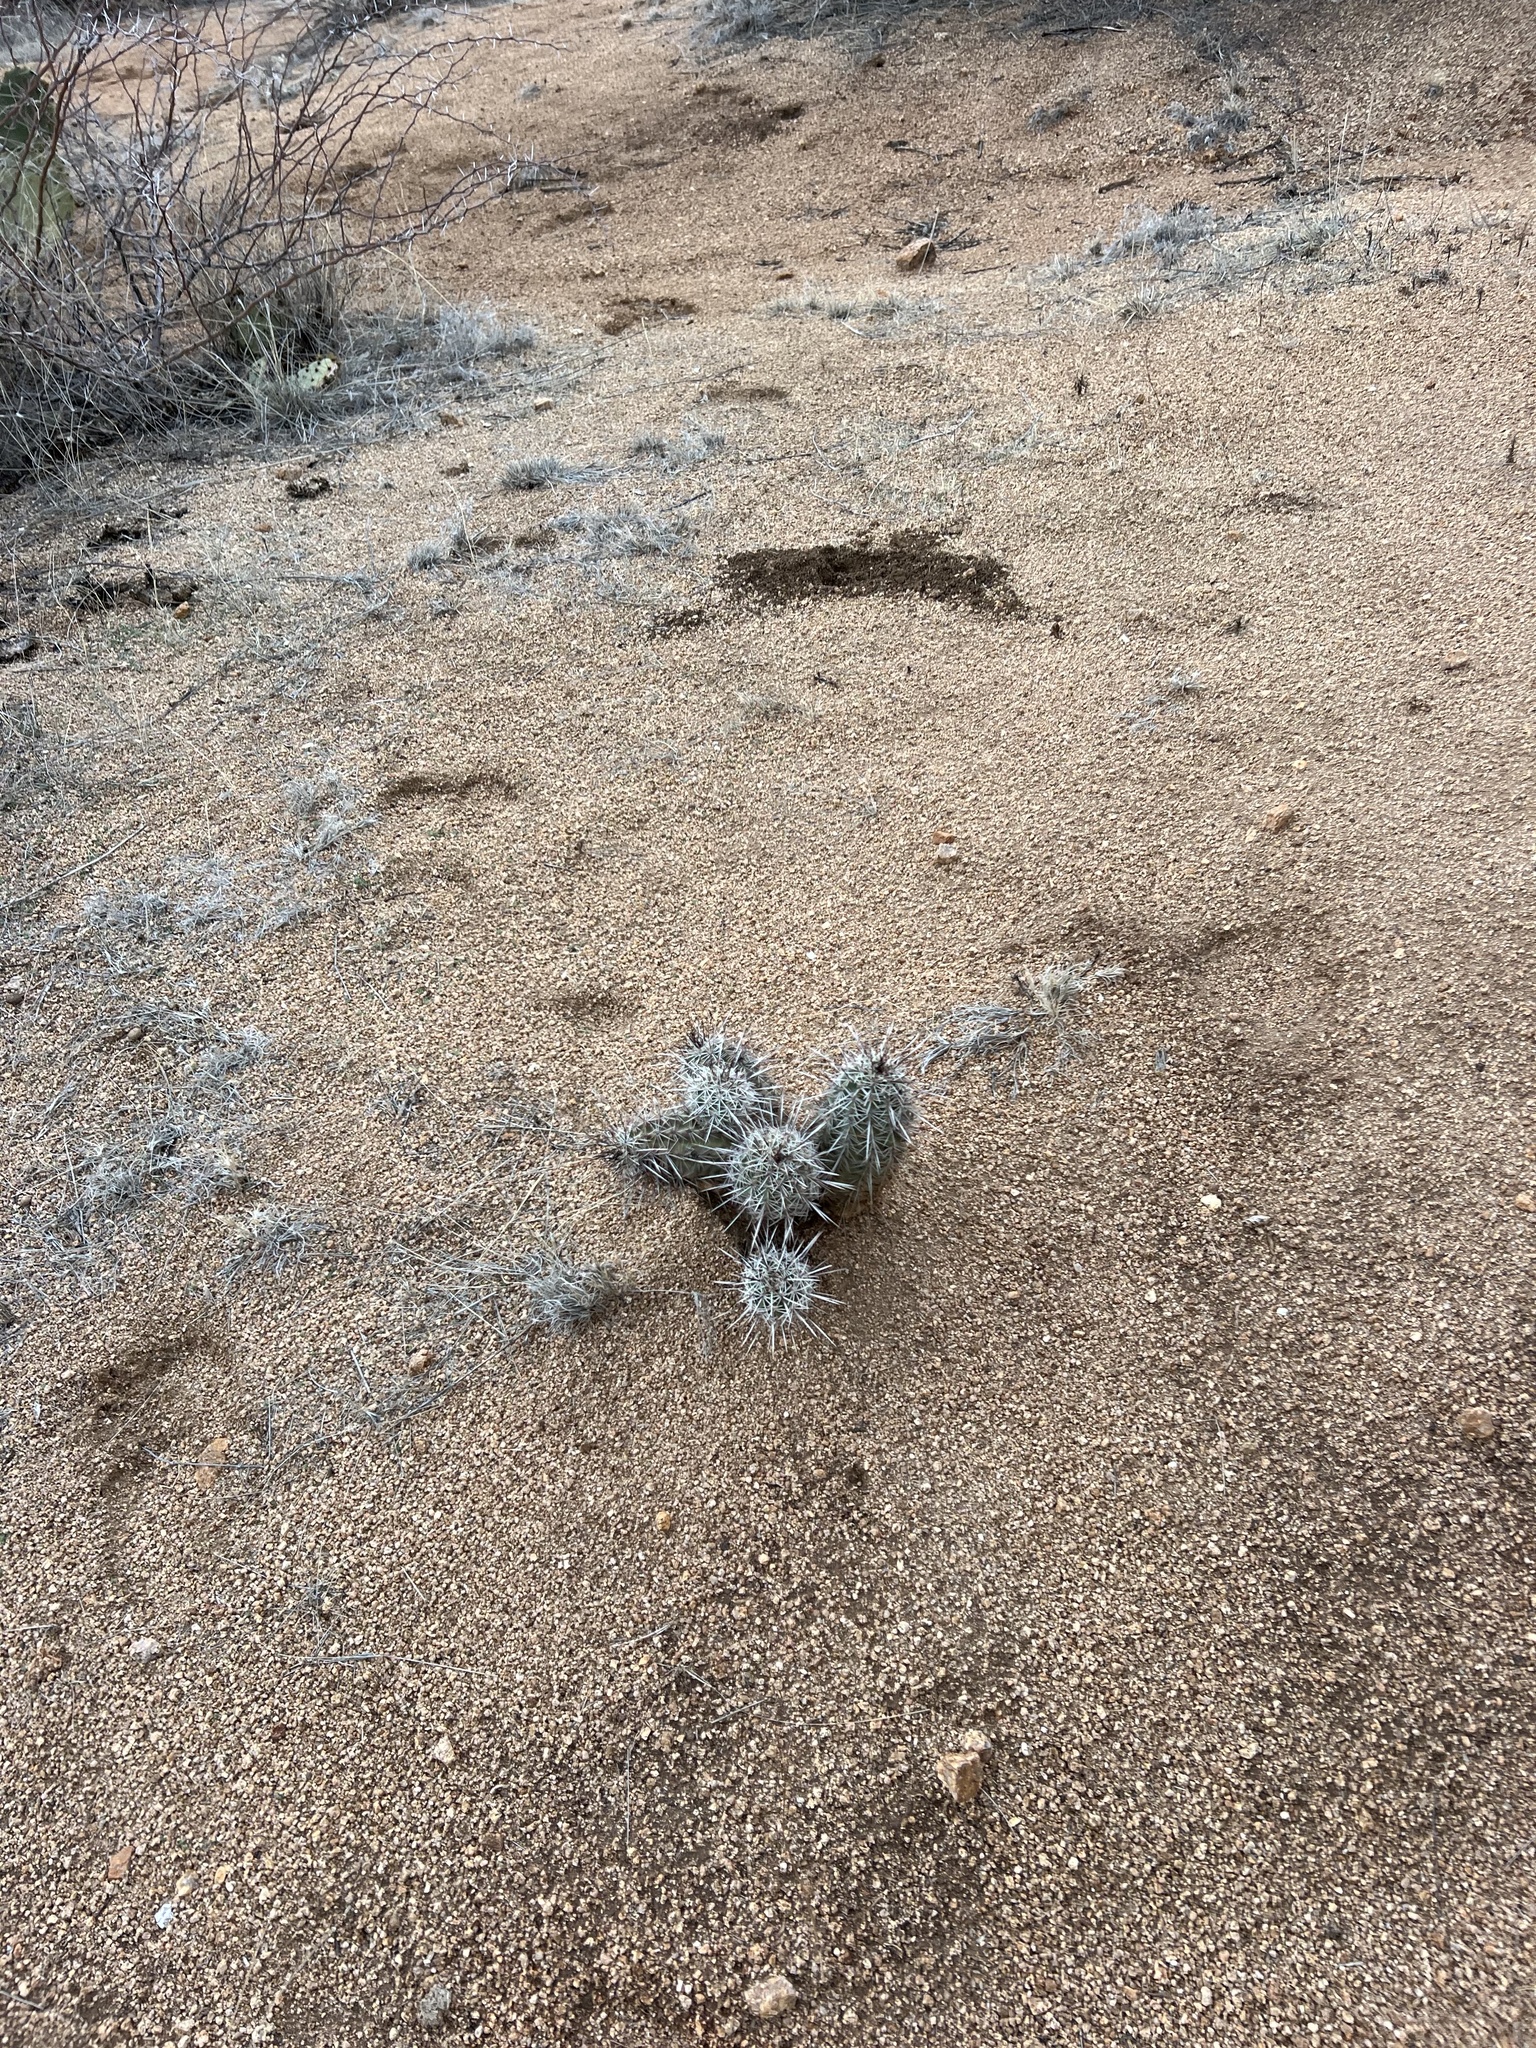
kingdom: Plantae
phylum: Tracheophyta
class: Magnoliopsida
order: Caryophyllales
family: Cactaceae
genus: Echinocereus
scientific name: Echinocereus fasciculatus
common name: Bundle hedgehog
